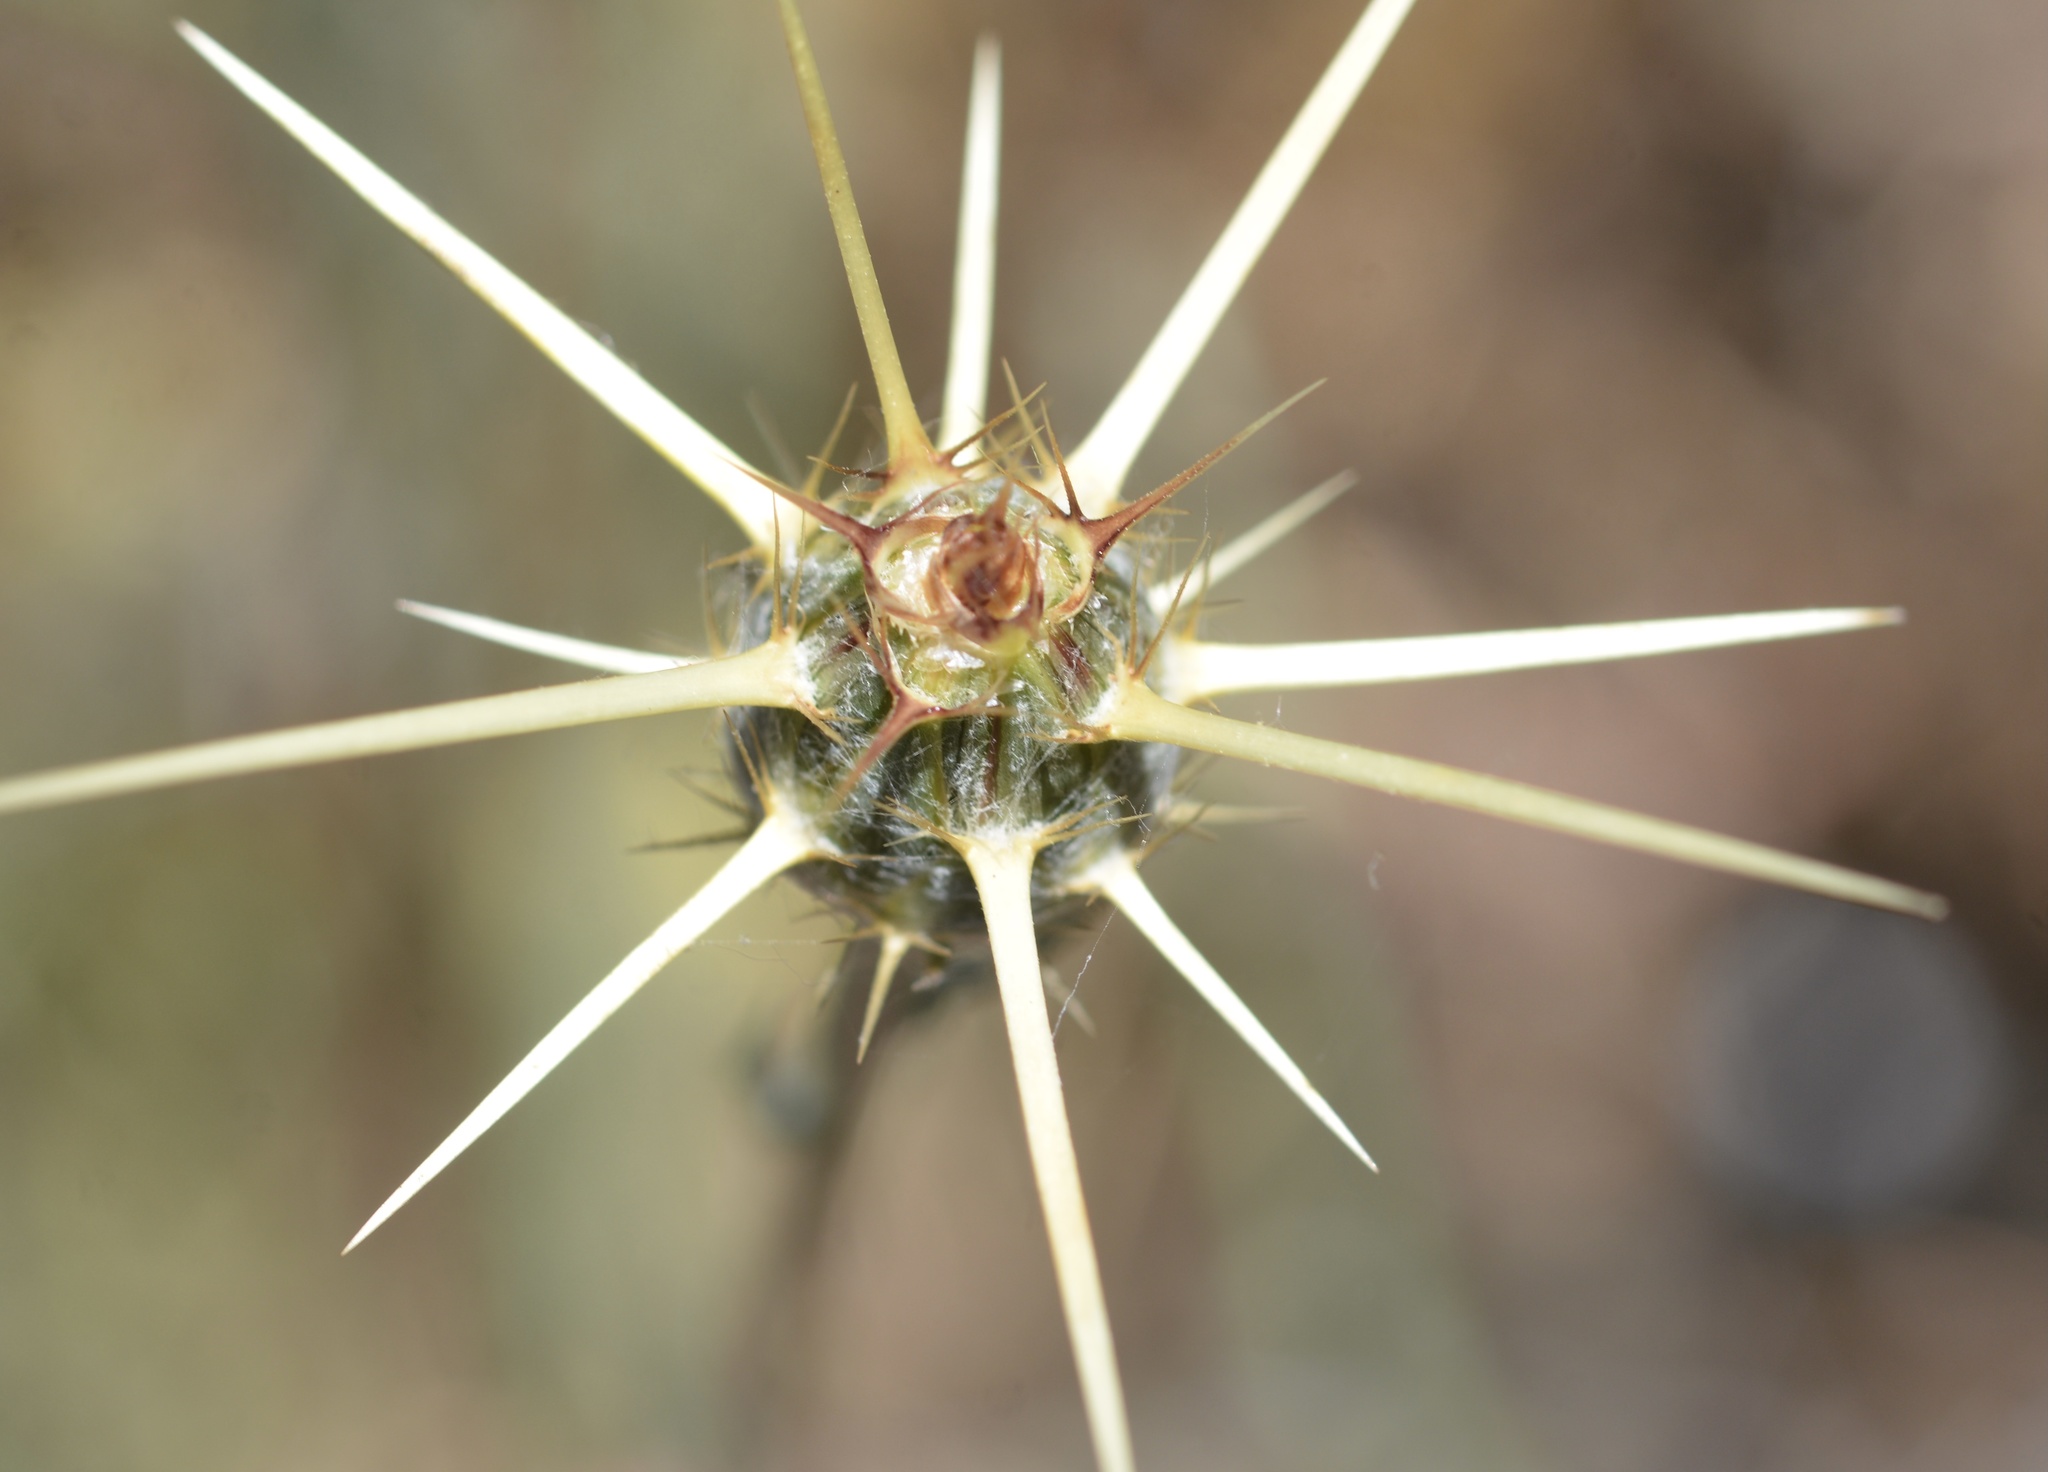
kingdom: Plantae
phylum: Tracheophyta
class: Magnoliopsida
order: Asterales
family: Asteraceae
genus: Centaurea
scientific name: Centaurea solstitialis
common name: Yellow star-thistle
